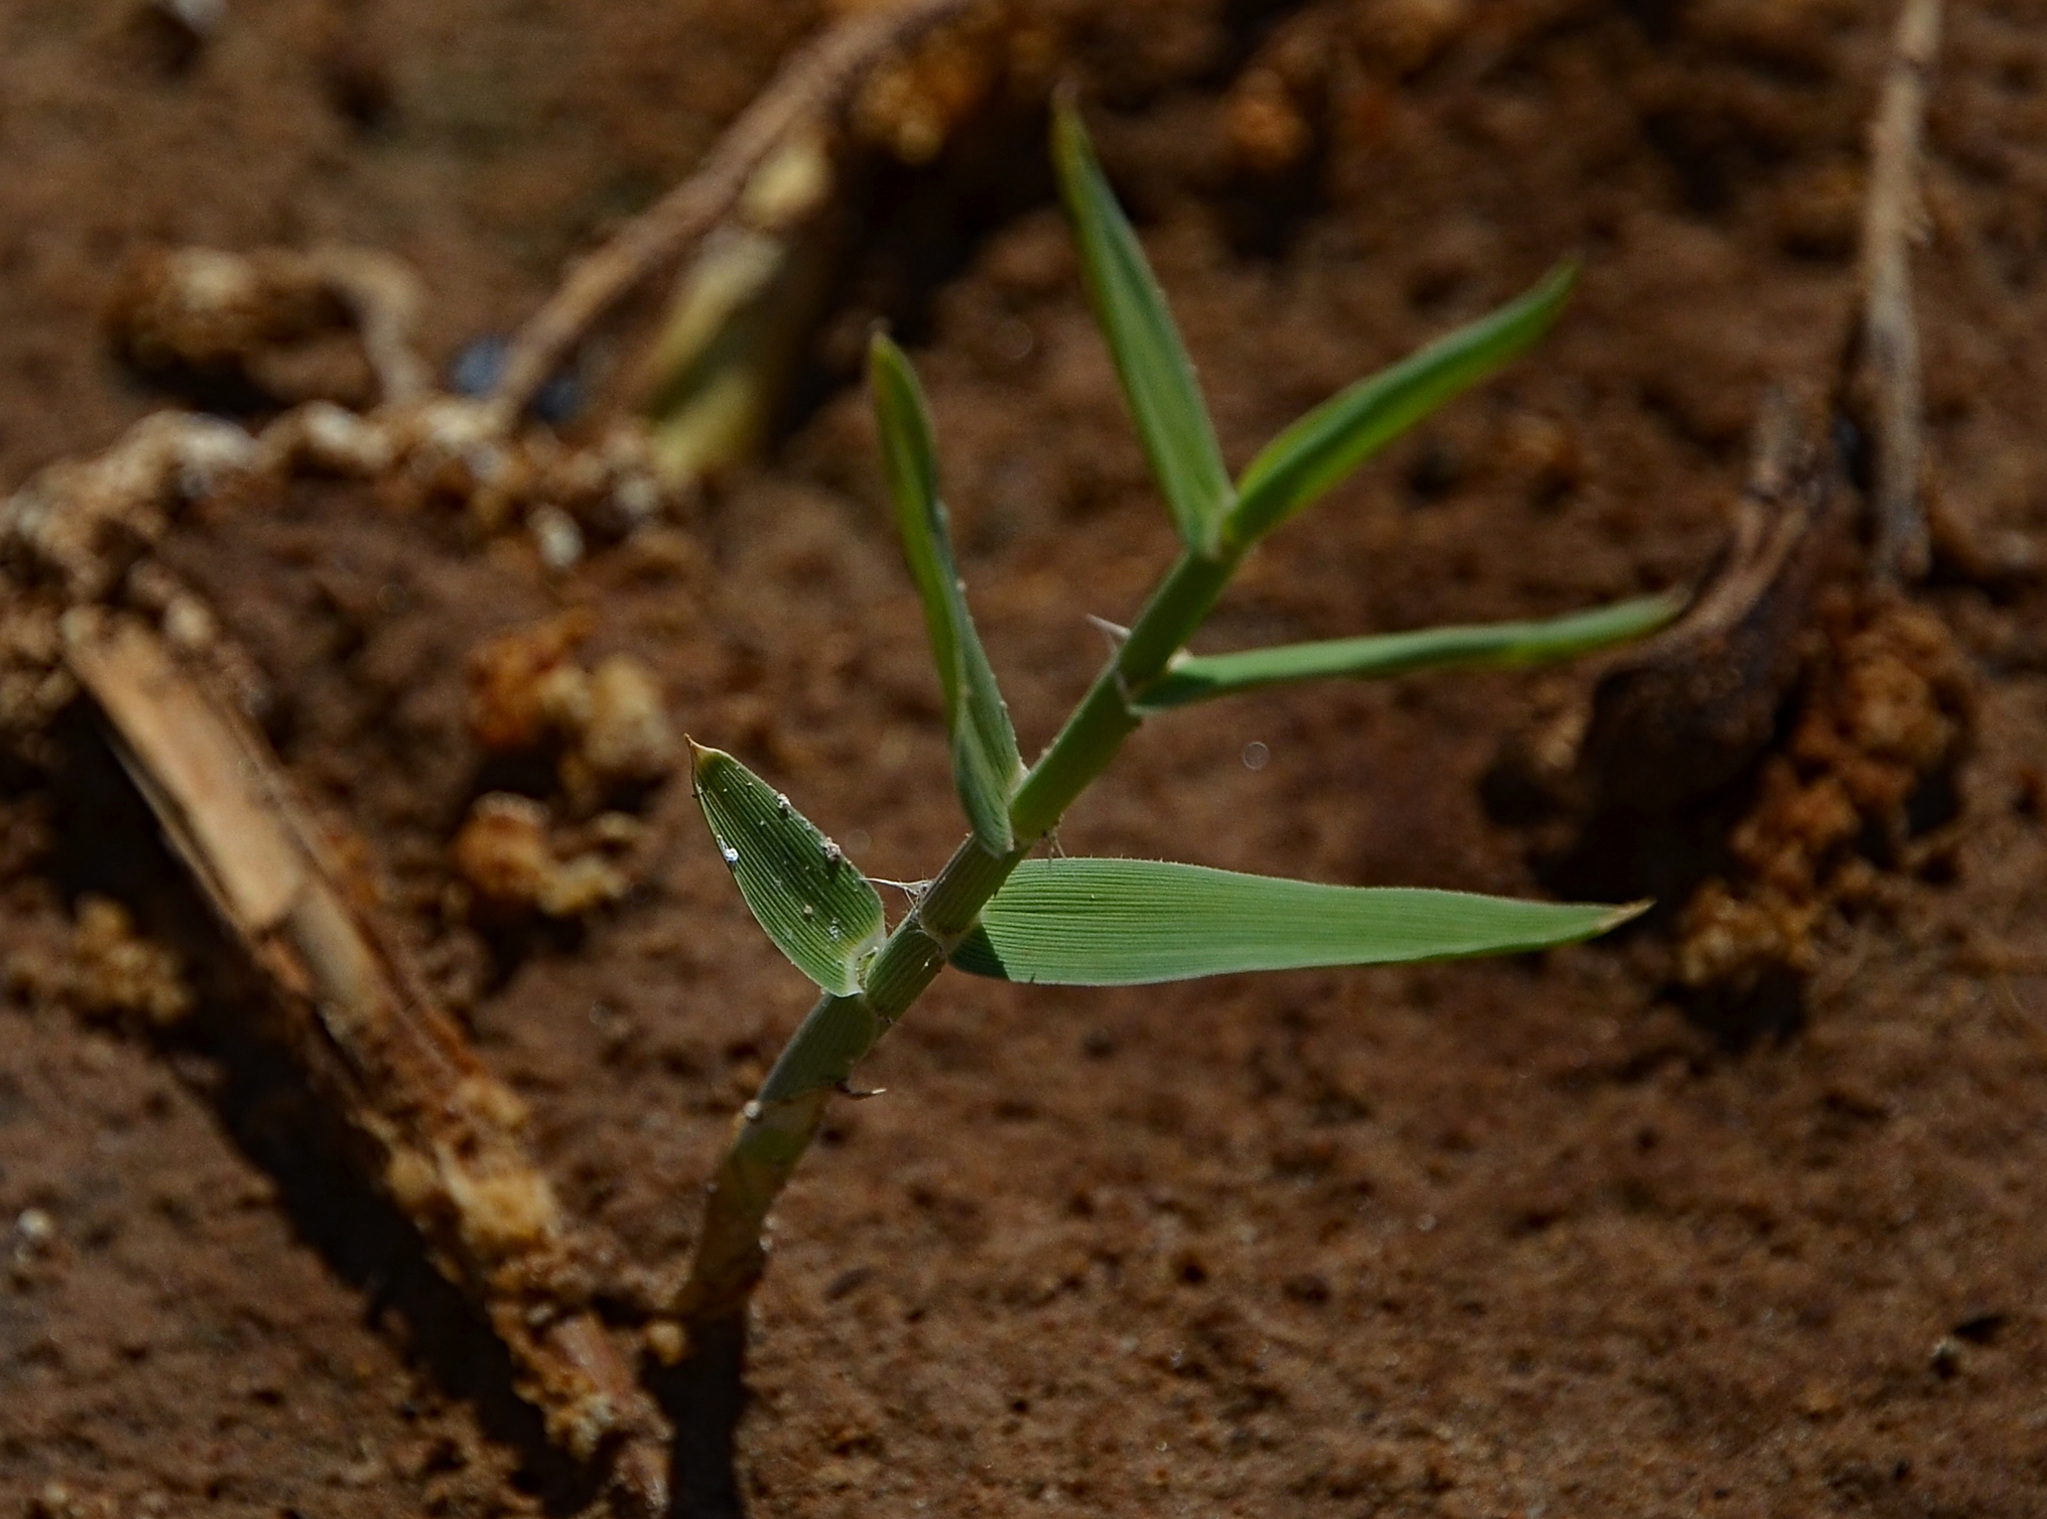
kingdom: Plantae
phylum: Tracheophyta
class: Liliopsida
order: Poales
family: Poaceae
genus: Phragmites
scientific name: Phragmites australis
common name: Common reed
